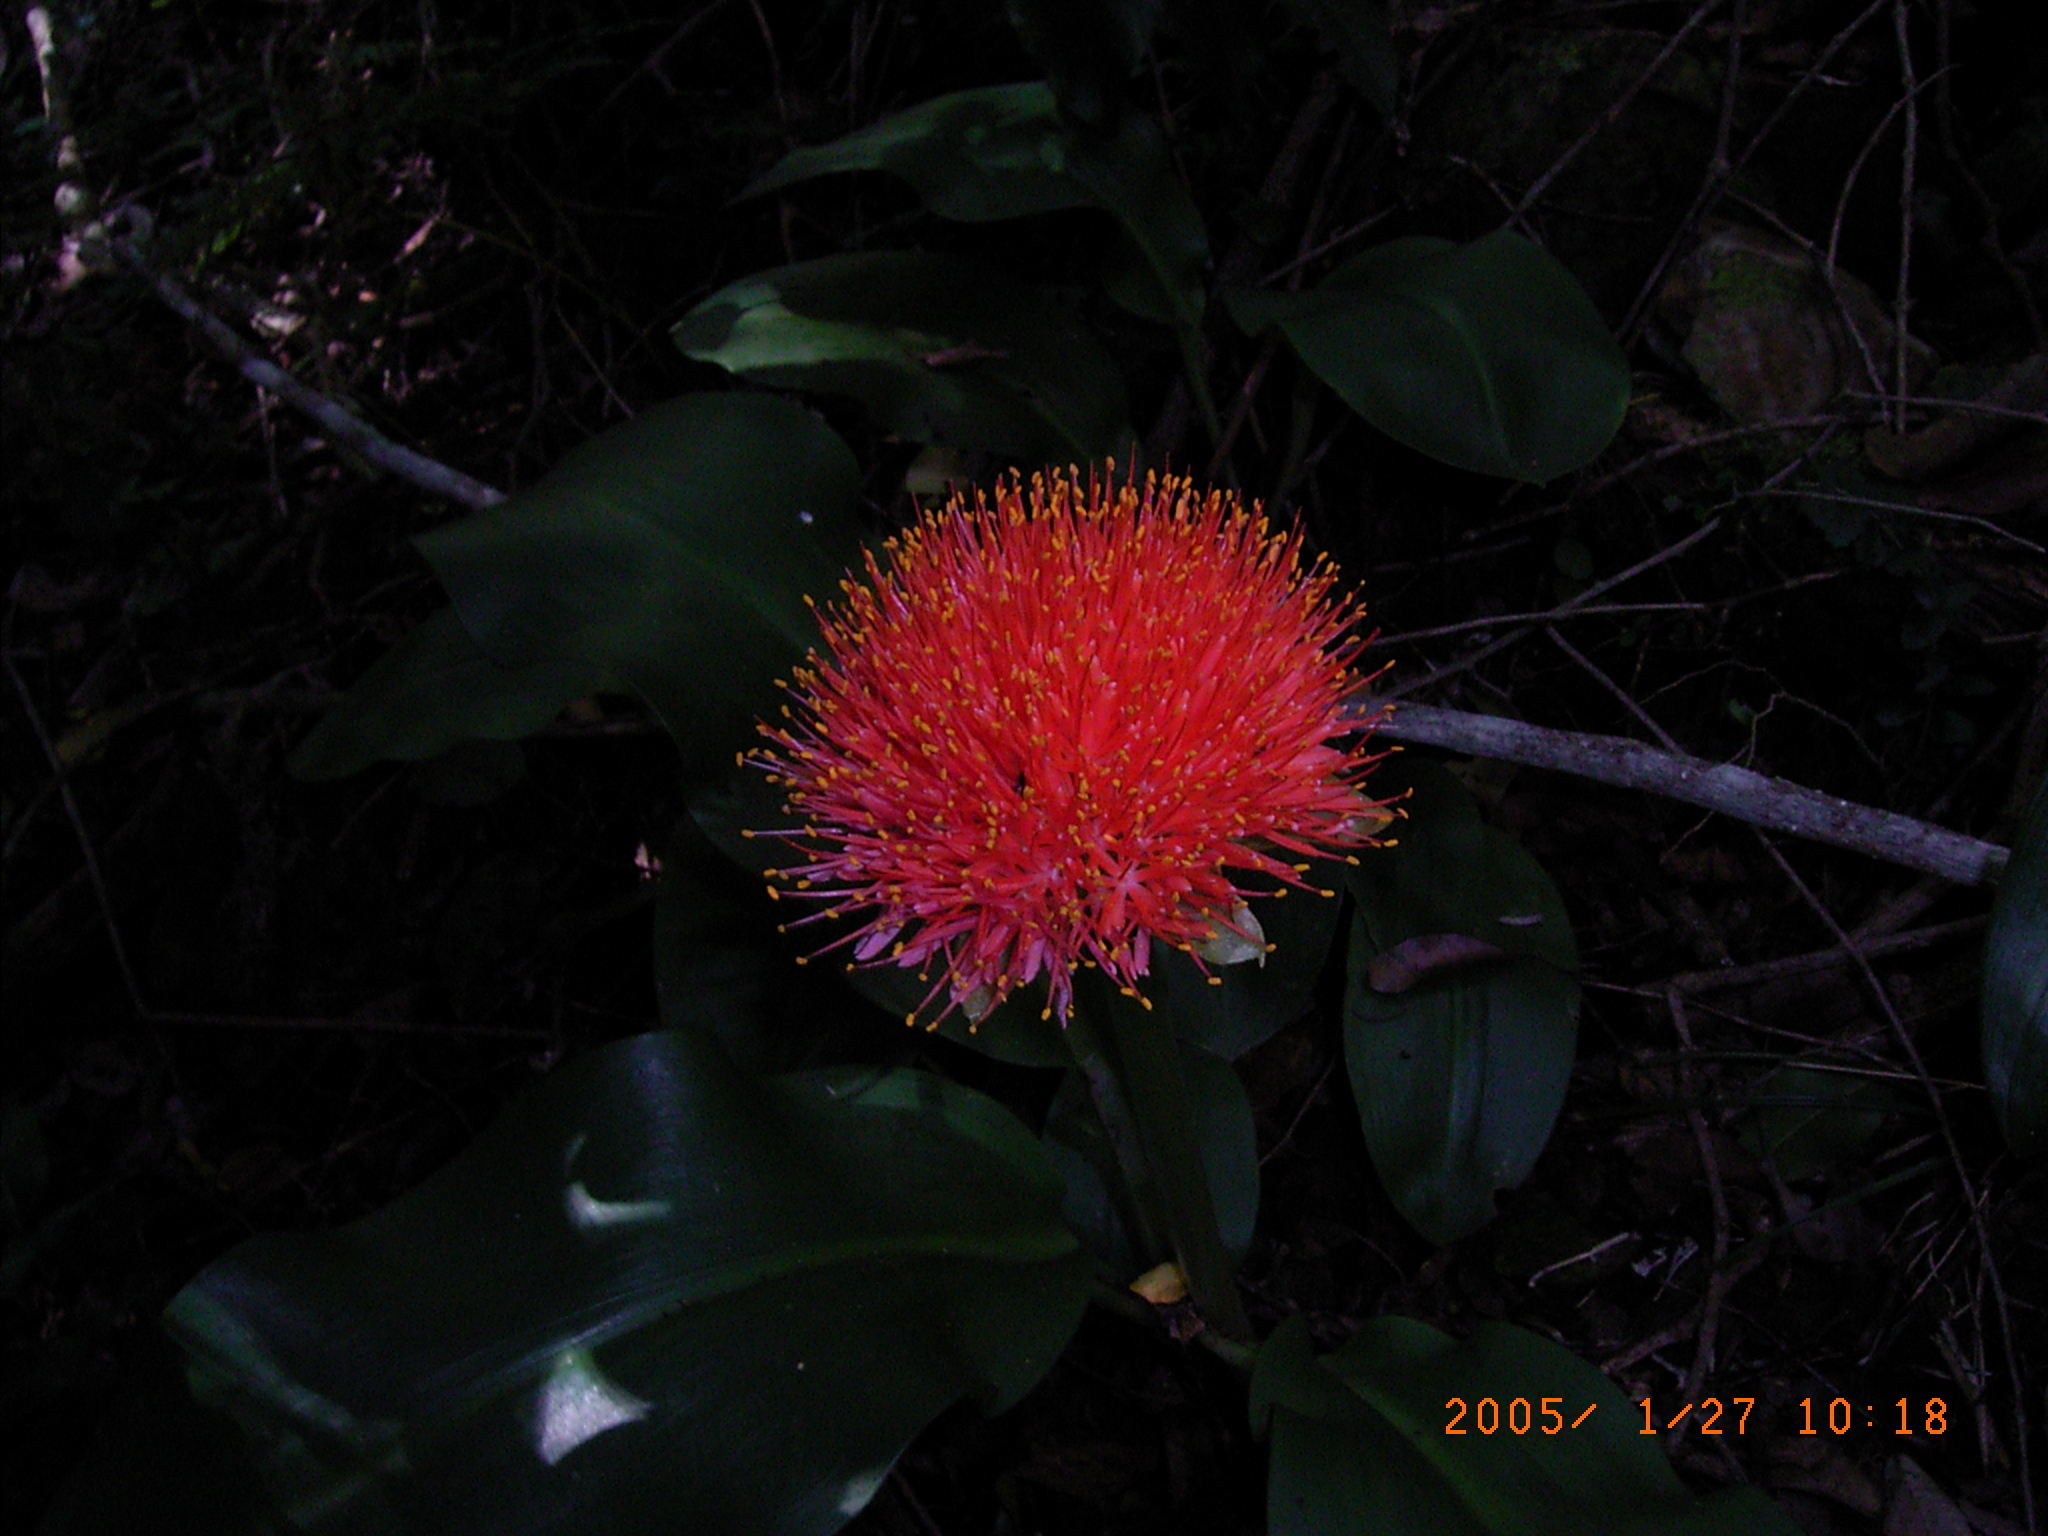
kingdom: Plantae
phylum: Tracheophyta
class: Liliopsida
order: Asparagales
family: Amaryllidaceae
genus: Scadoxus
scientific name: Scadoxus puniceus
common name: Royal-paintbrush
